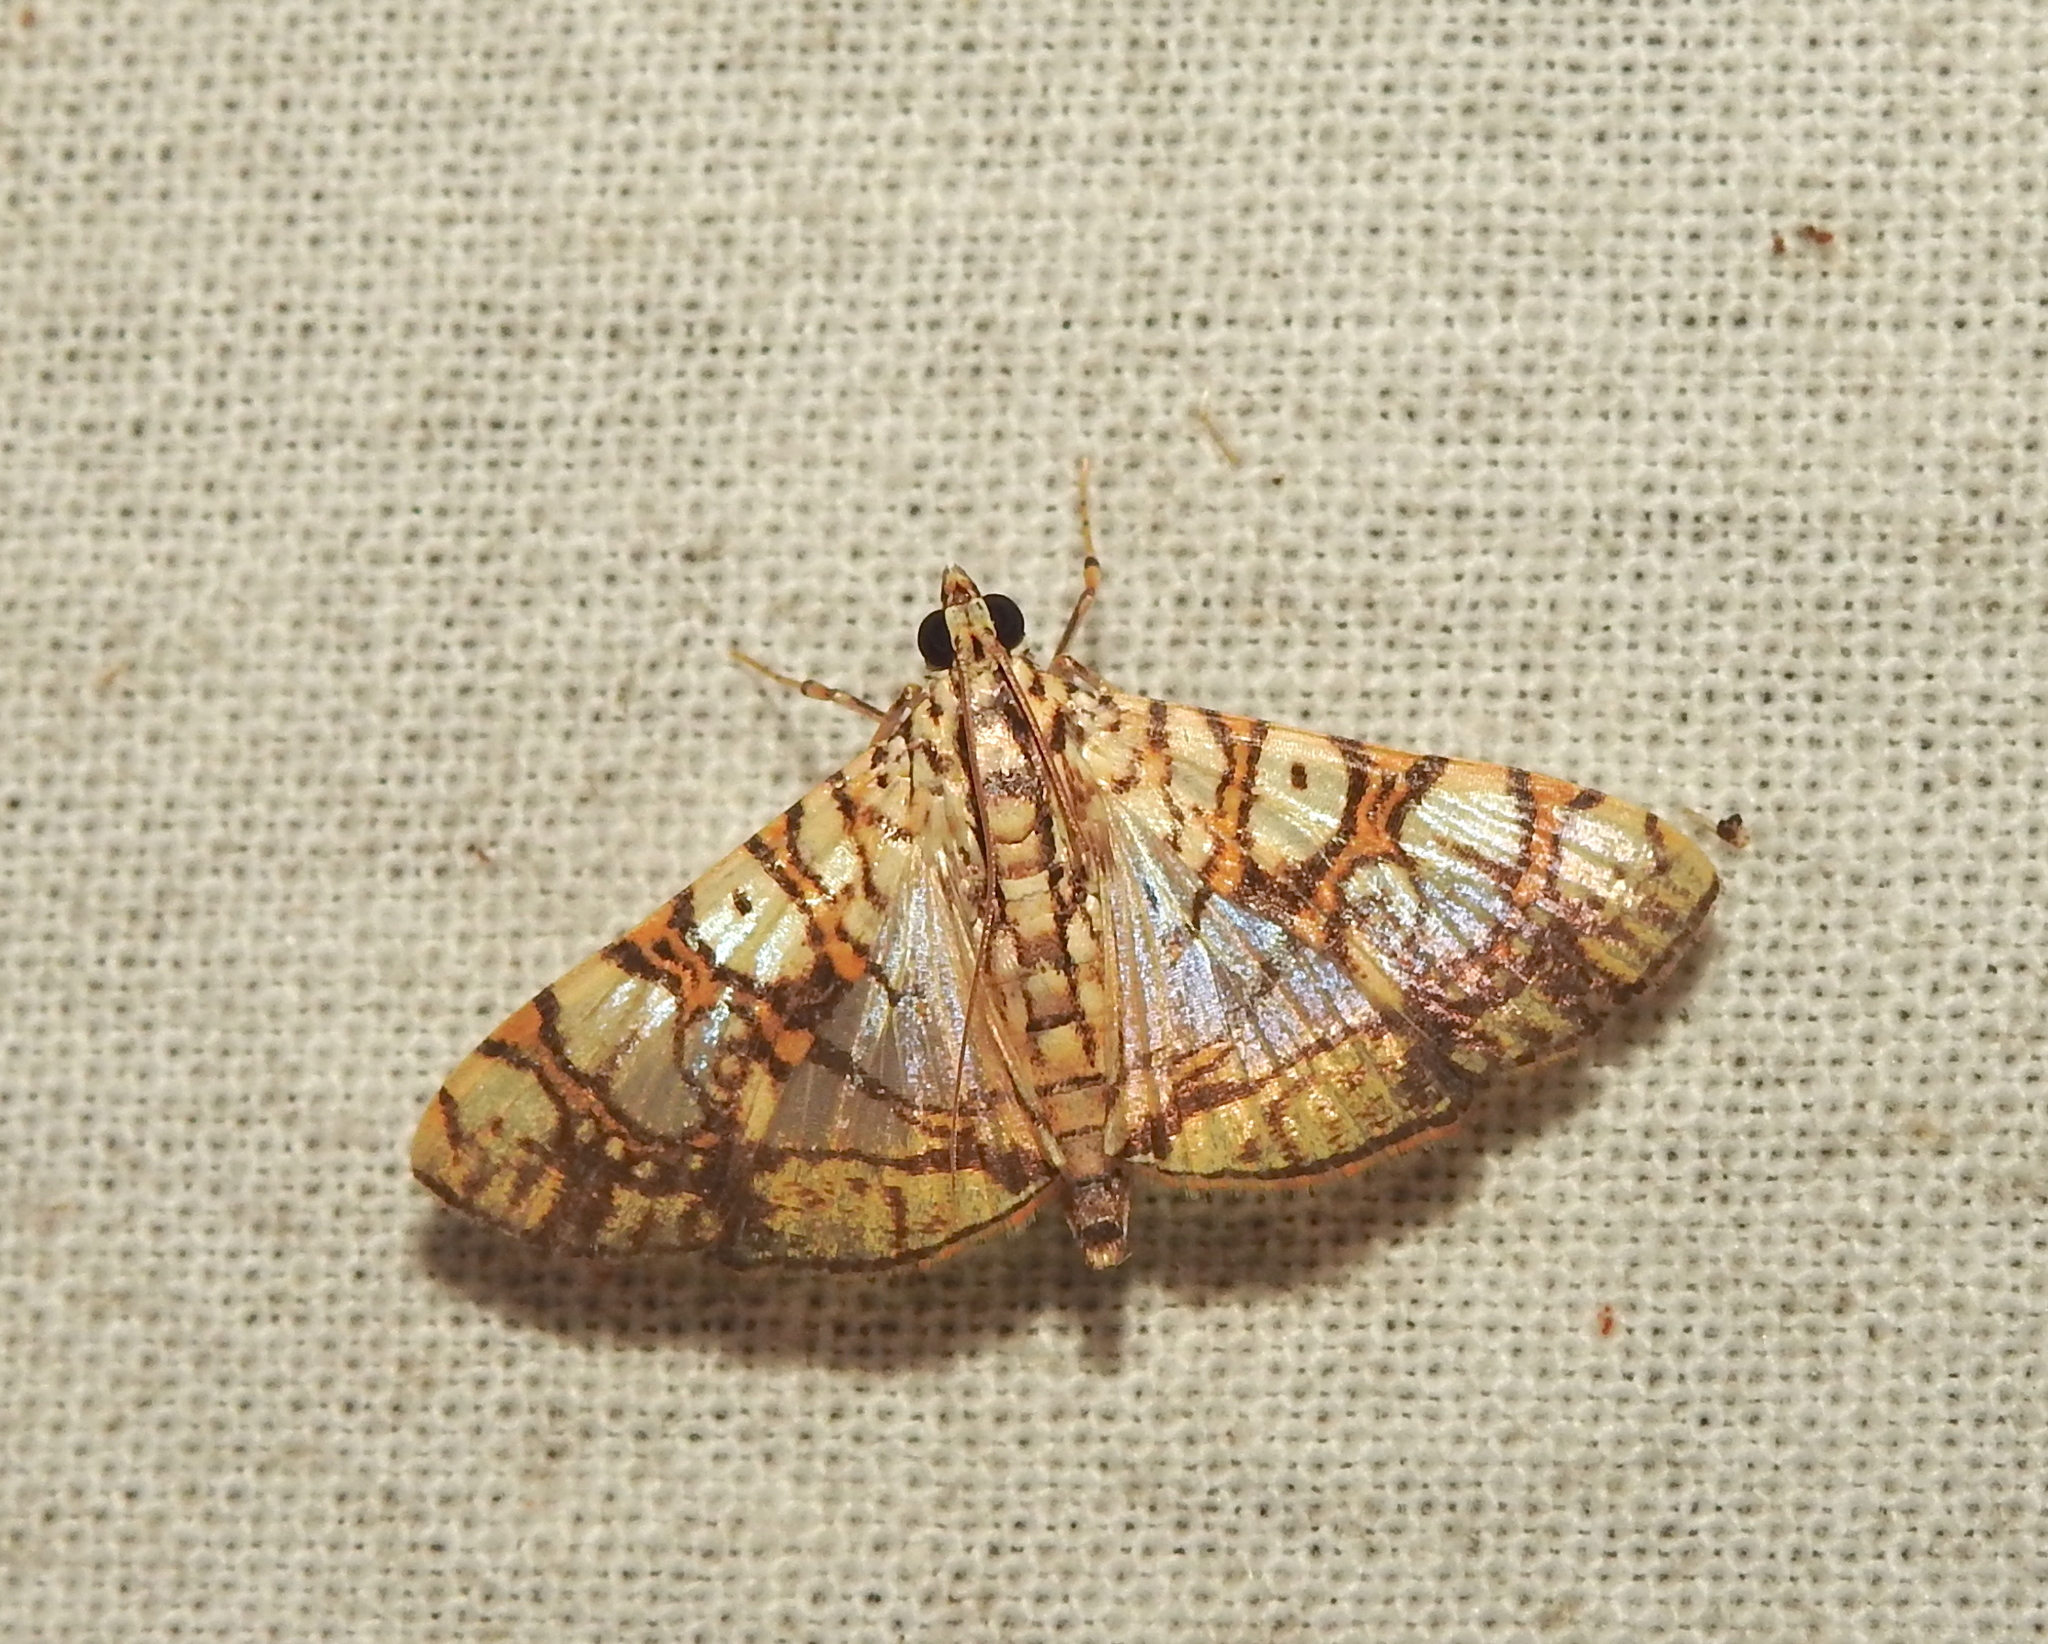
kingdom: Animalia
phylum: Arthropoda
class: Insecta
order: Lepidoptera
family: Crambidae
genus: Glyphodes
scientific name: Glyphodes caesalis
